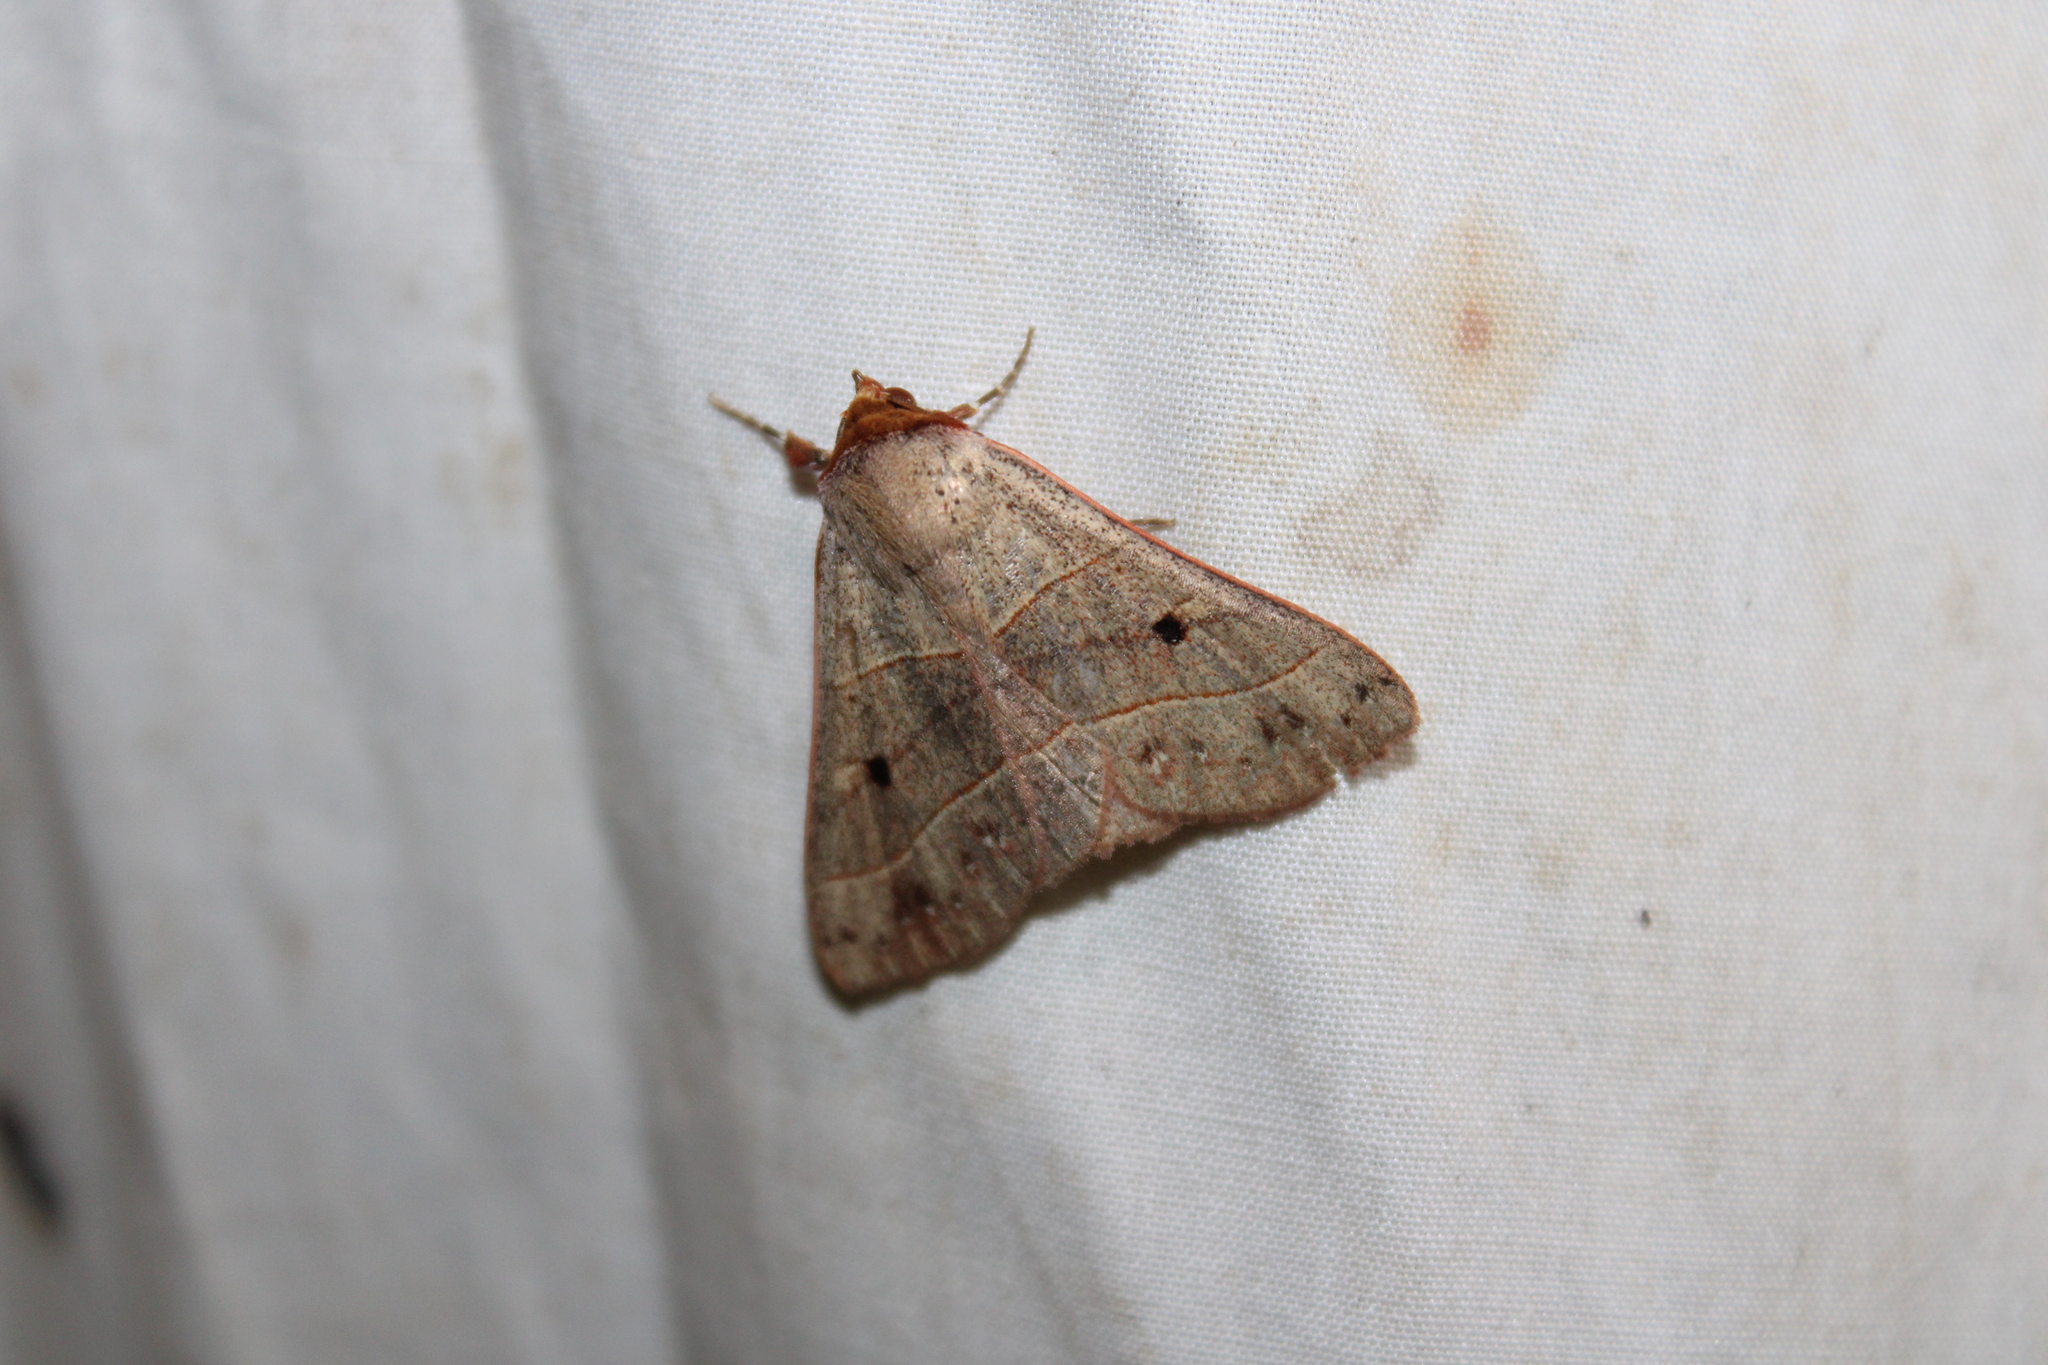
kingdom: Animalia
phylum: Arthropoda
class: Insecta
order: Lepidoptera
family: Erebidae
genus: Panopoda
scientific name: Panopoda rufimargo
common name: Red-lined panopoda moth
